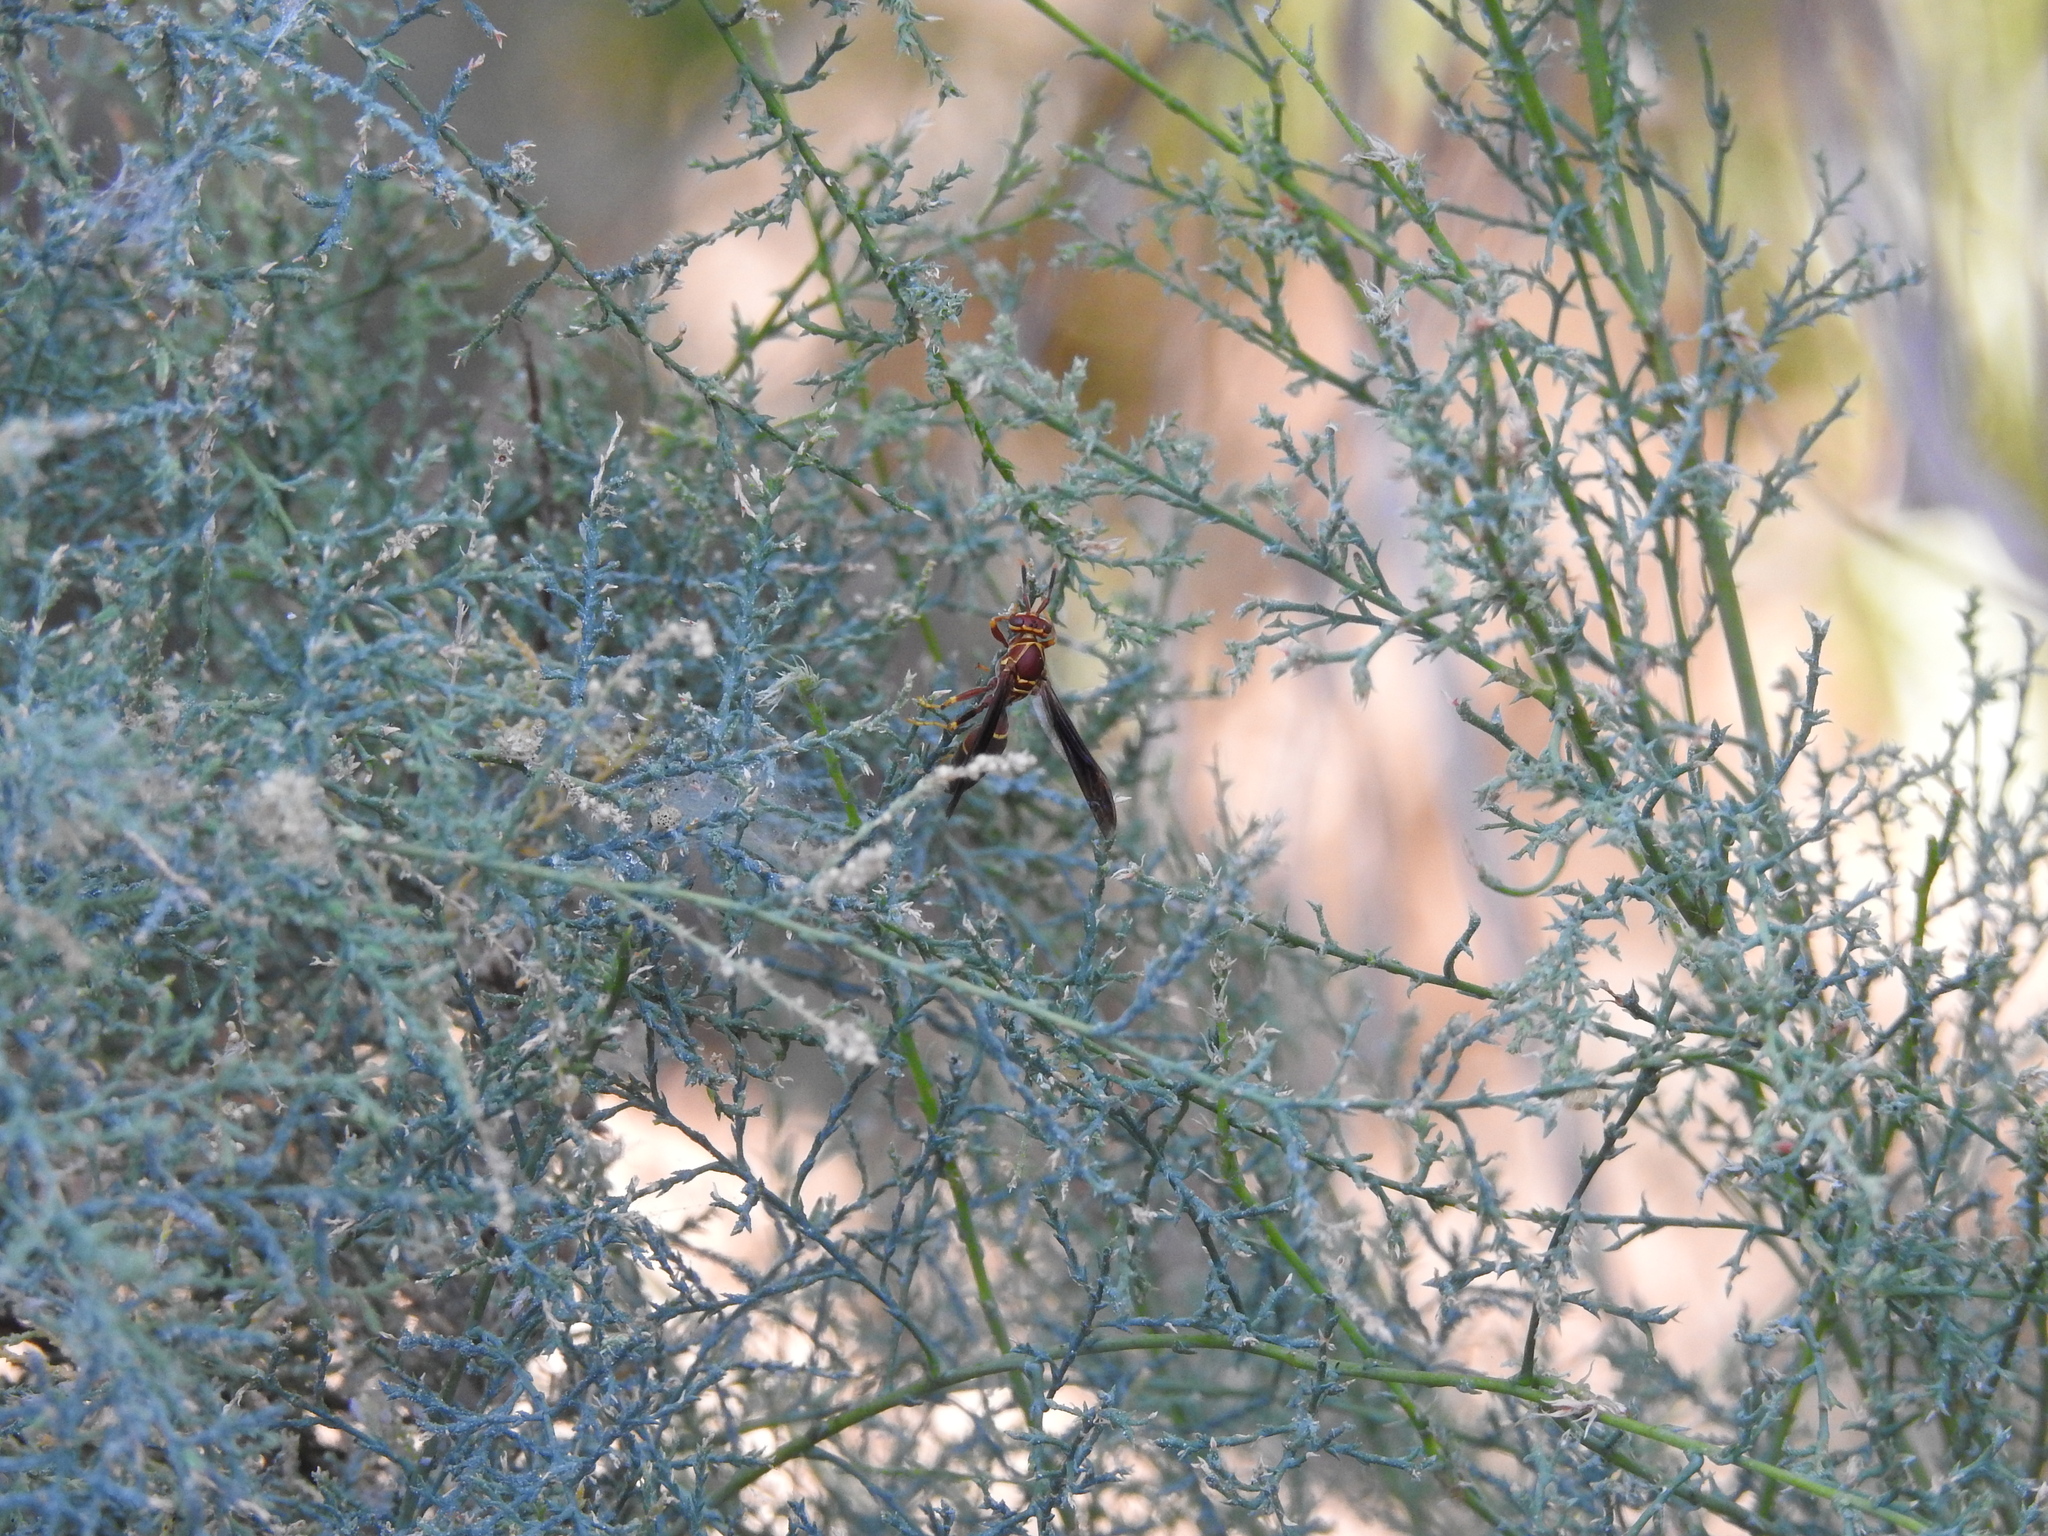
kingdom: Animalia
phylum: Arthropoda
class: Insecta
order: Hymenoptera
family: Eumenidae
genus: Polistes
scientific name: Polistes arizonensis
